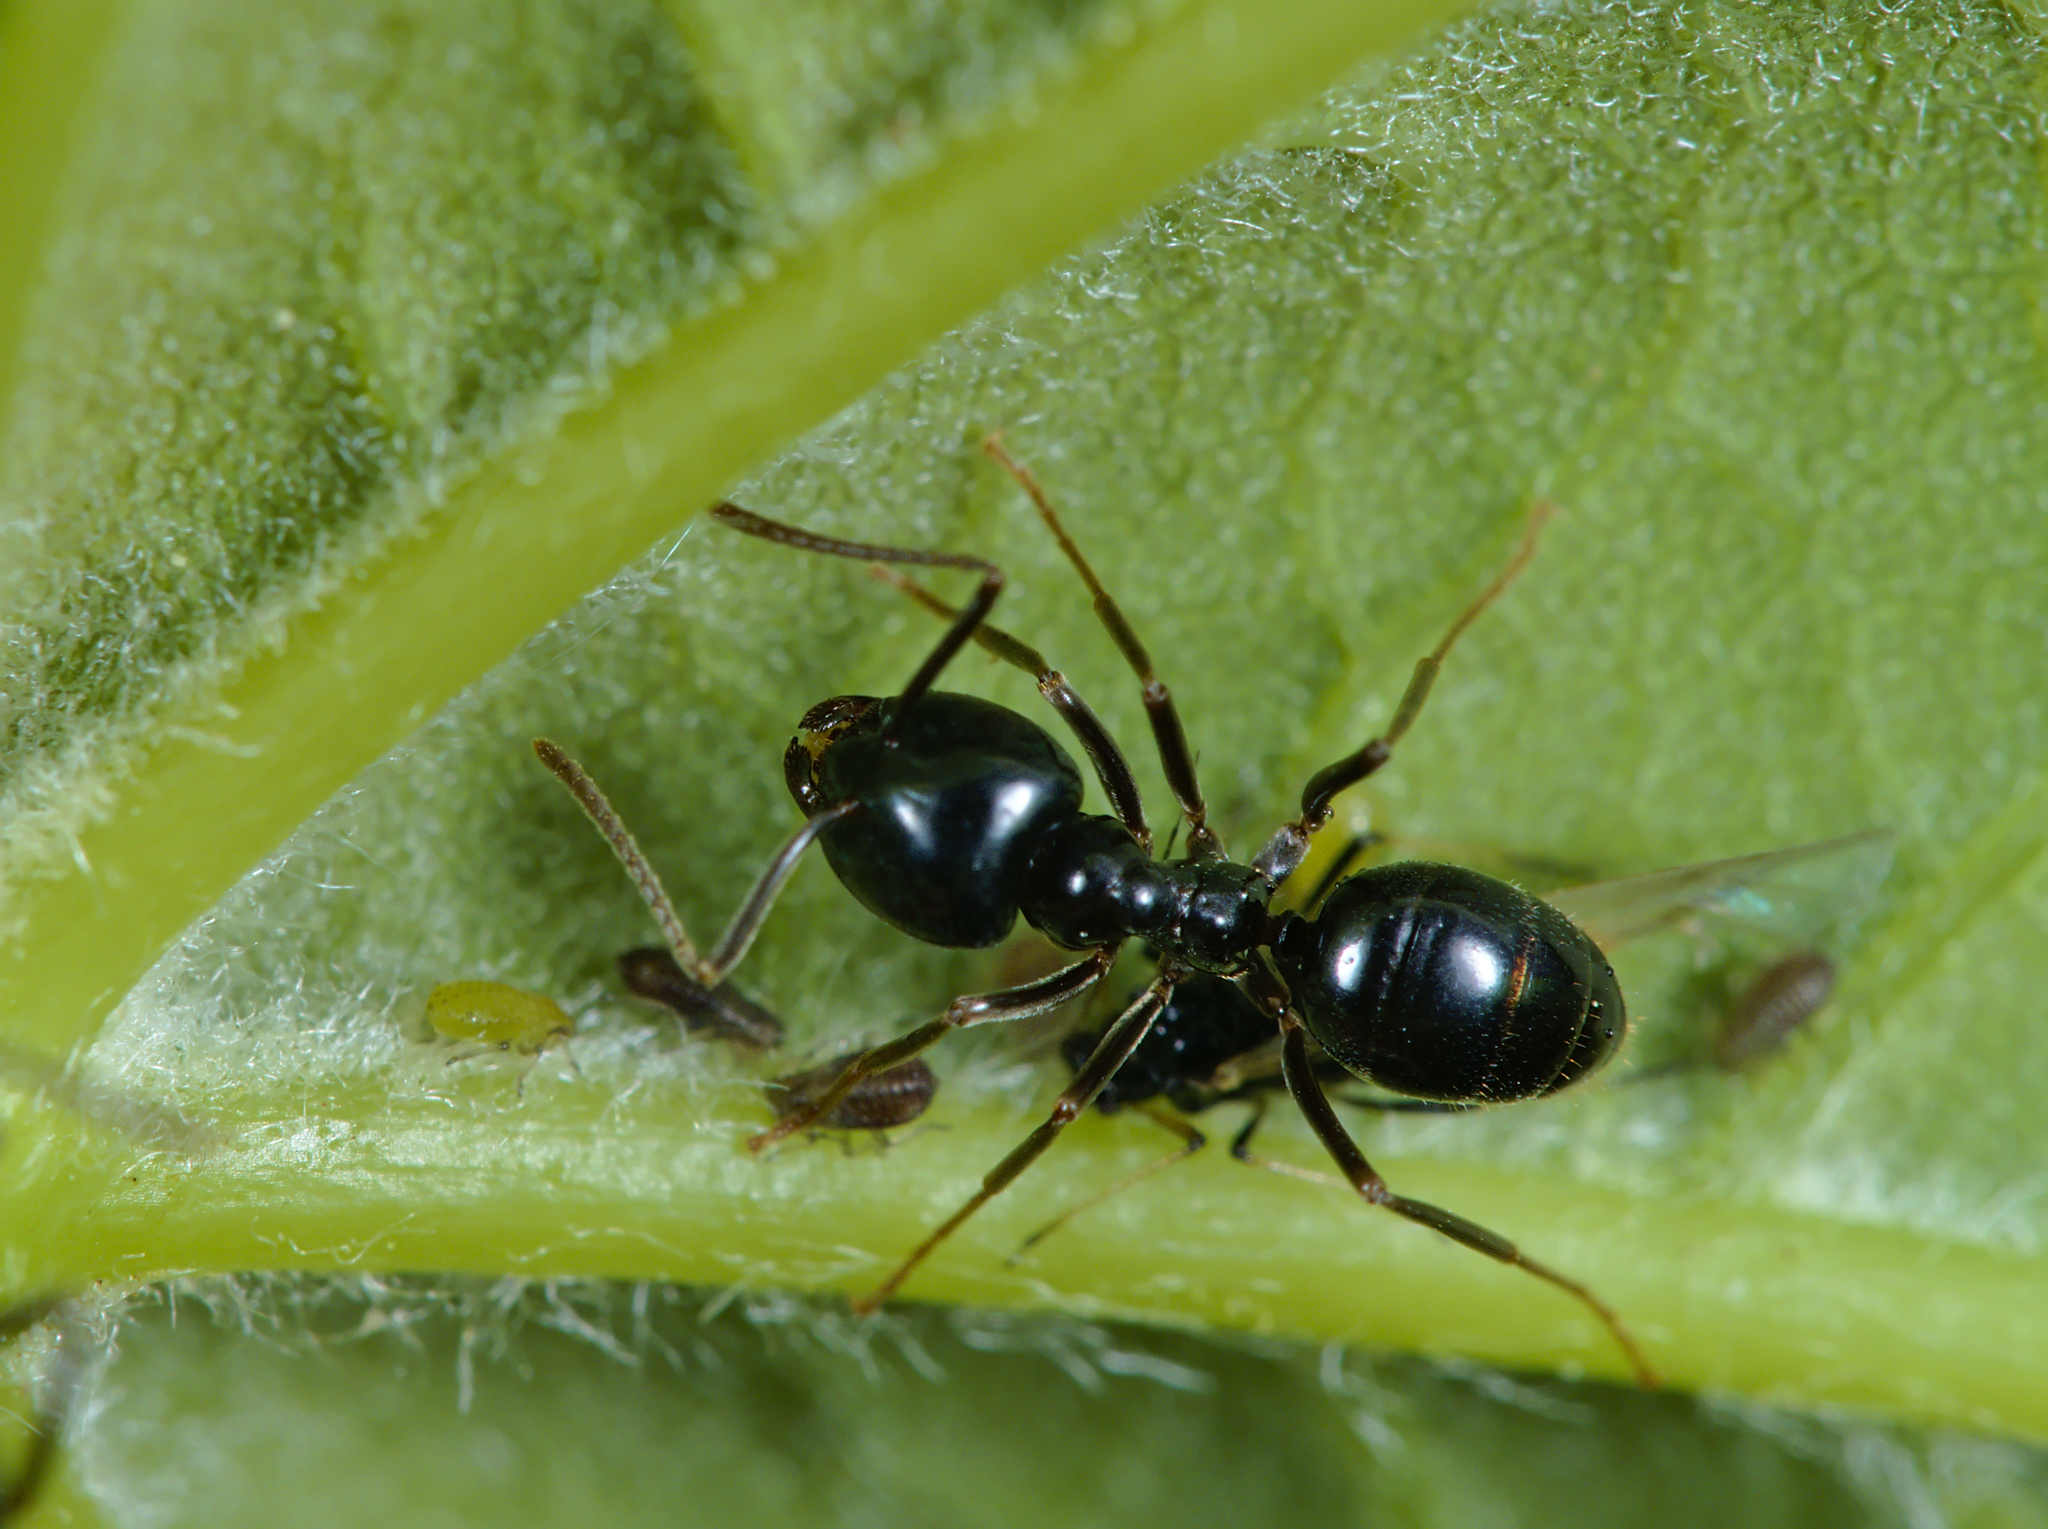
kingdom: Animalia
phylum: Arthropoda
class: Insecta
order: Hymenoptera
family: Formicidae
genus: Lasius
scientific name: Lasius fuliginosus
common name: Jet ant
